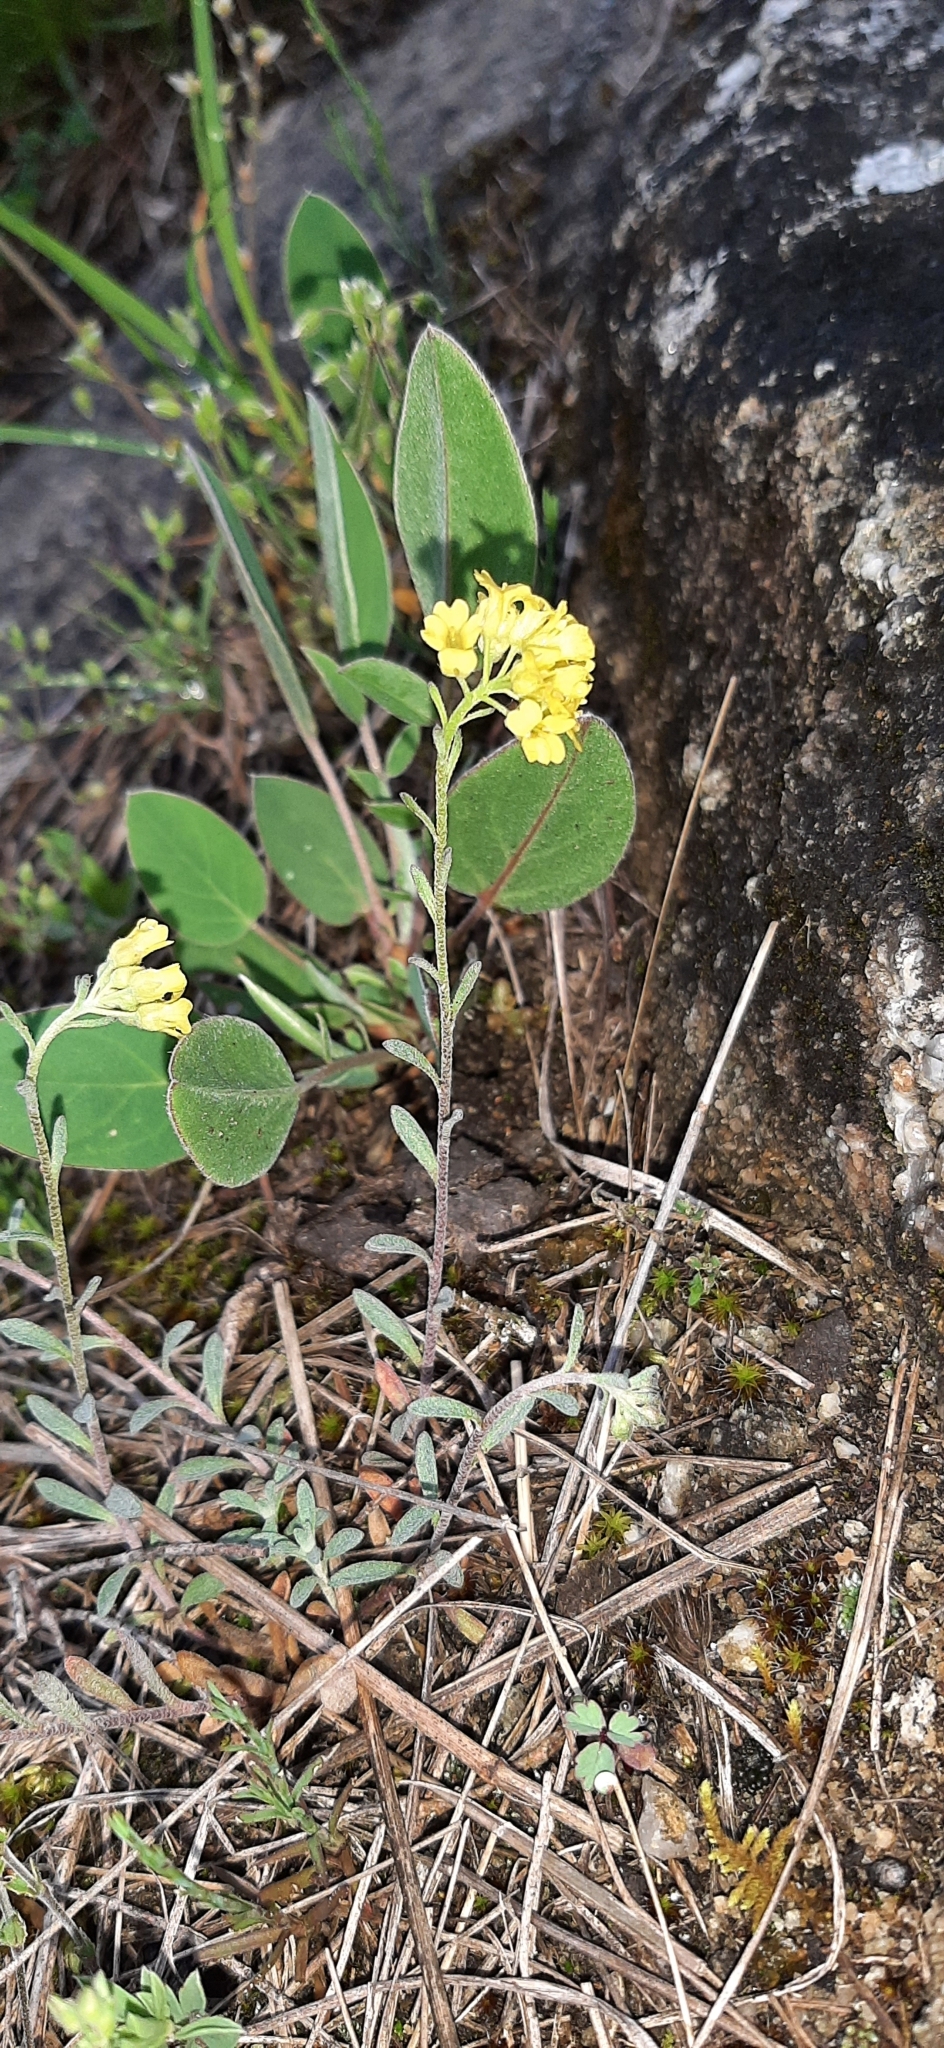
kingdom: Plantae
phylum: Tracheophyta
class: Magnoliopsida
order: Brassicales
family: Brassicaceae
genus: Alyssum
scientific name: Alyssum gmelinii
